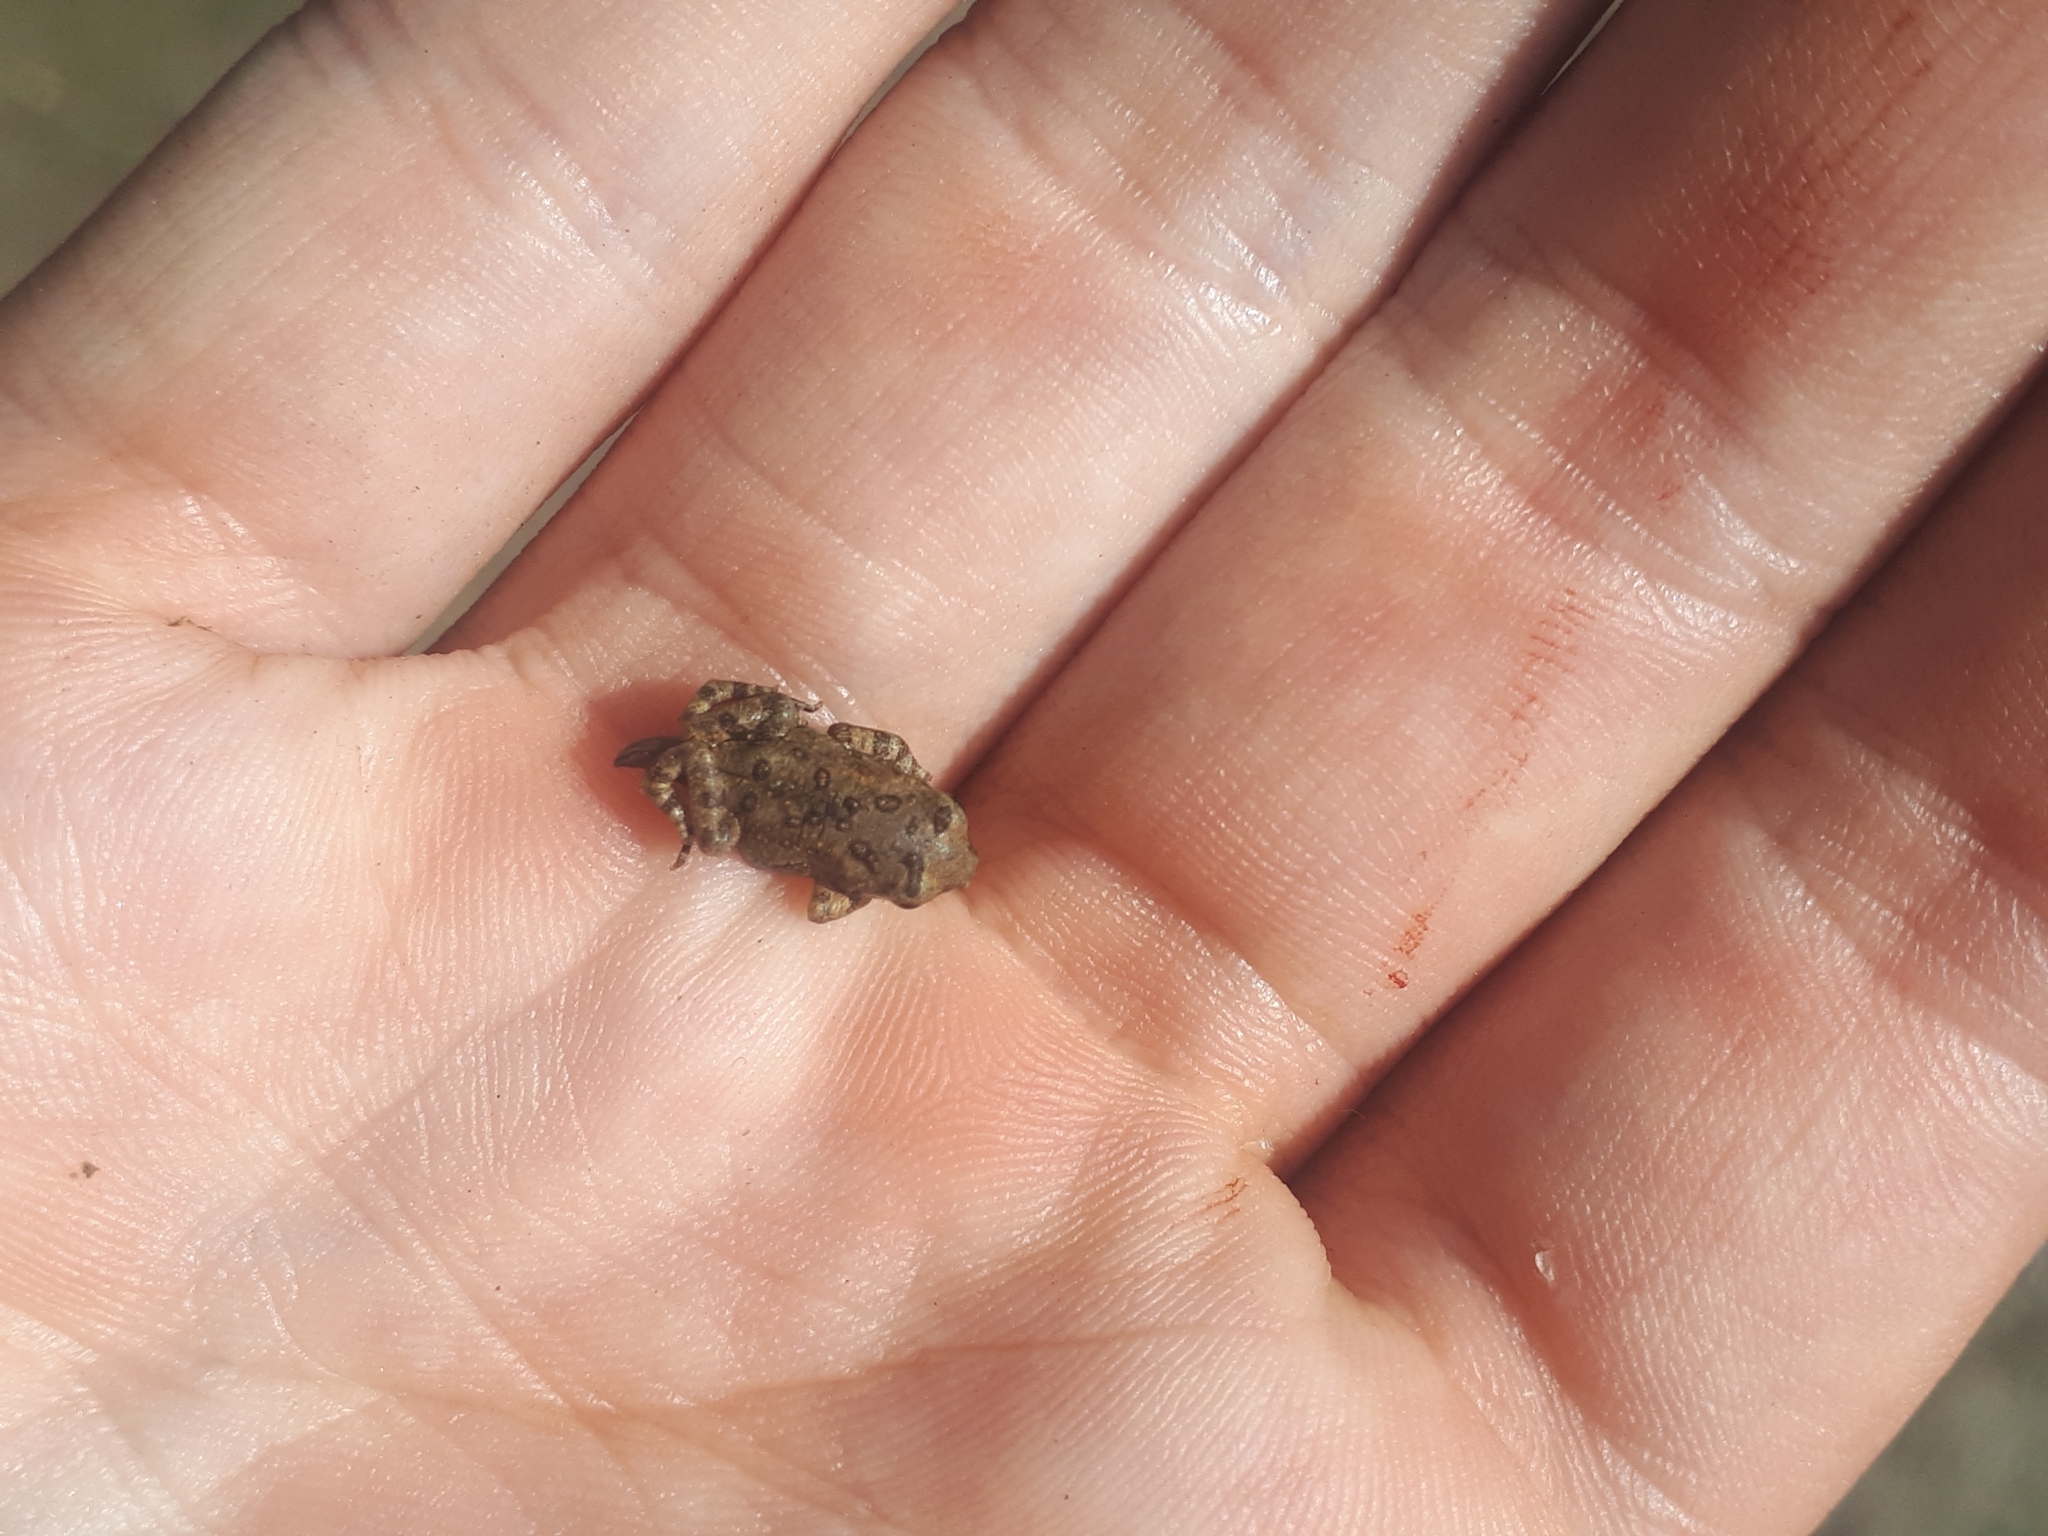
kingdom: Animalia
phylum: Chordata
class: Amphibia
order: Anura
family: Bufonidae
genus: Anaxyrus
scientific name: Anaxyrus americanus
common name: American toad
